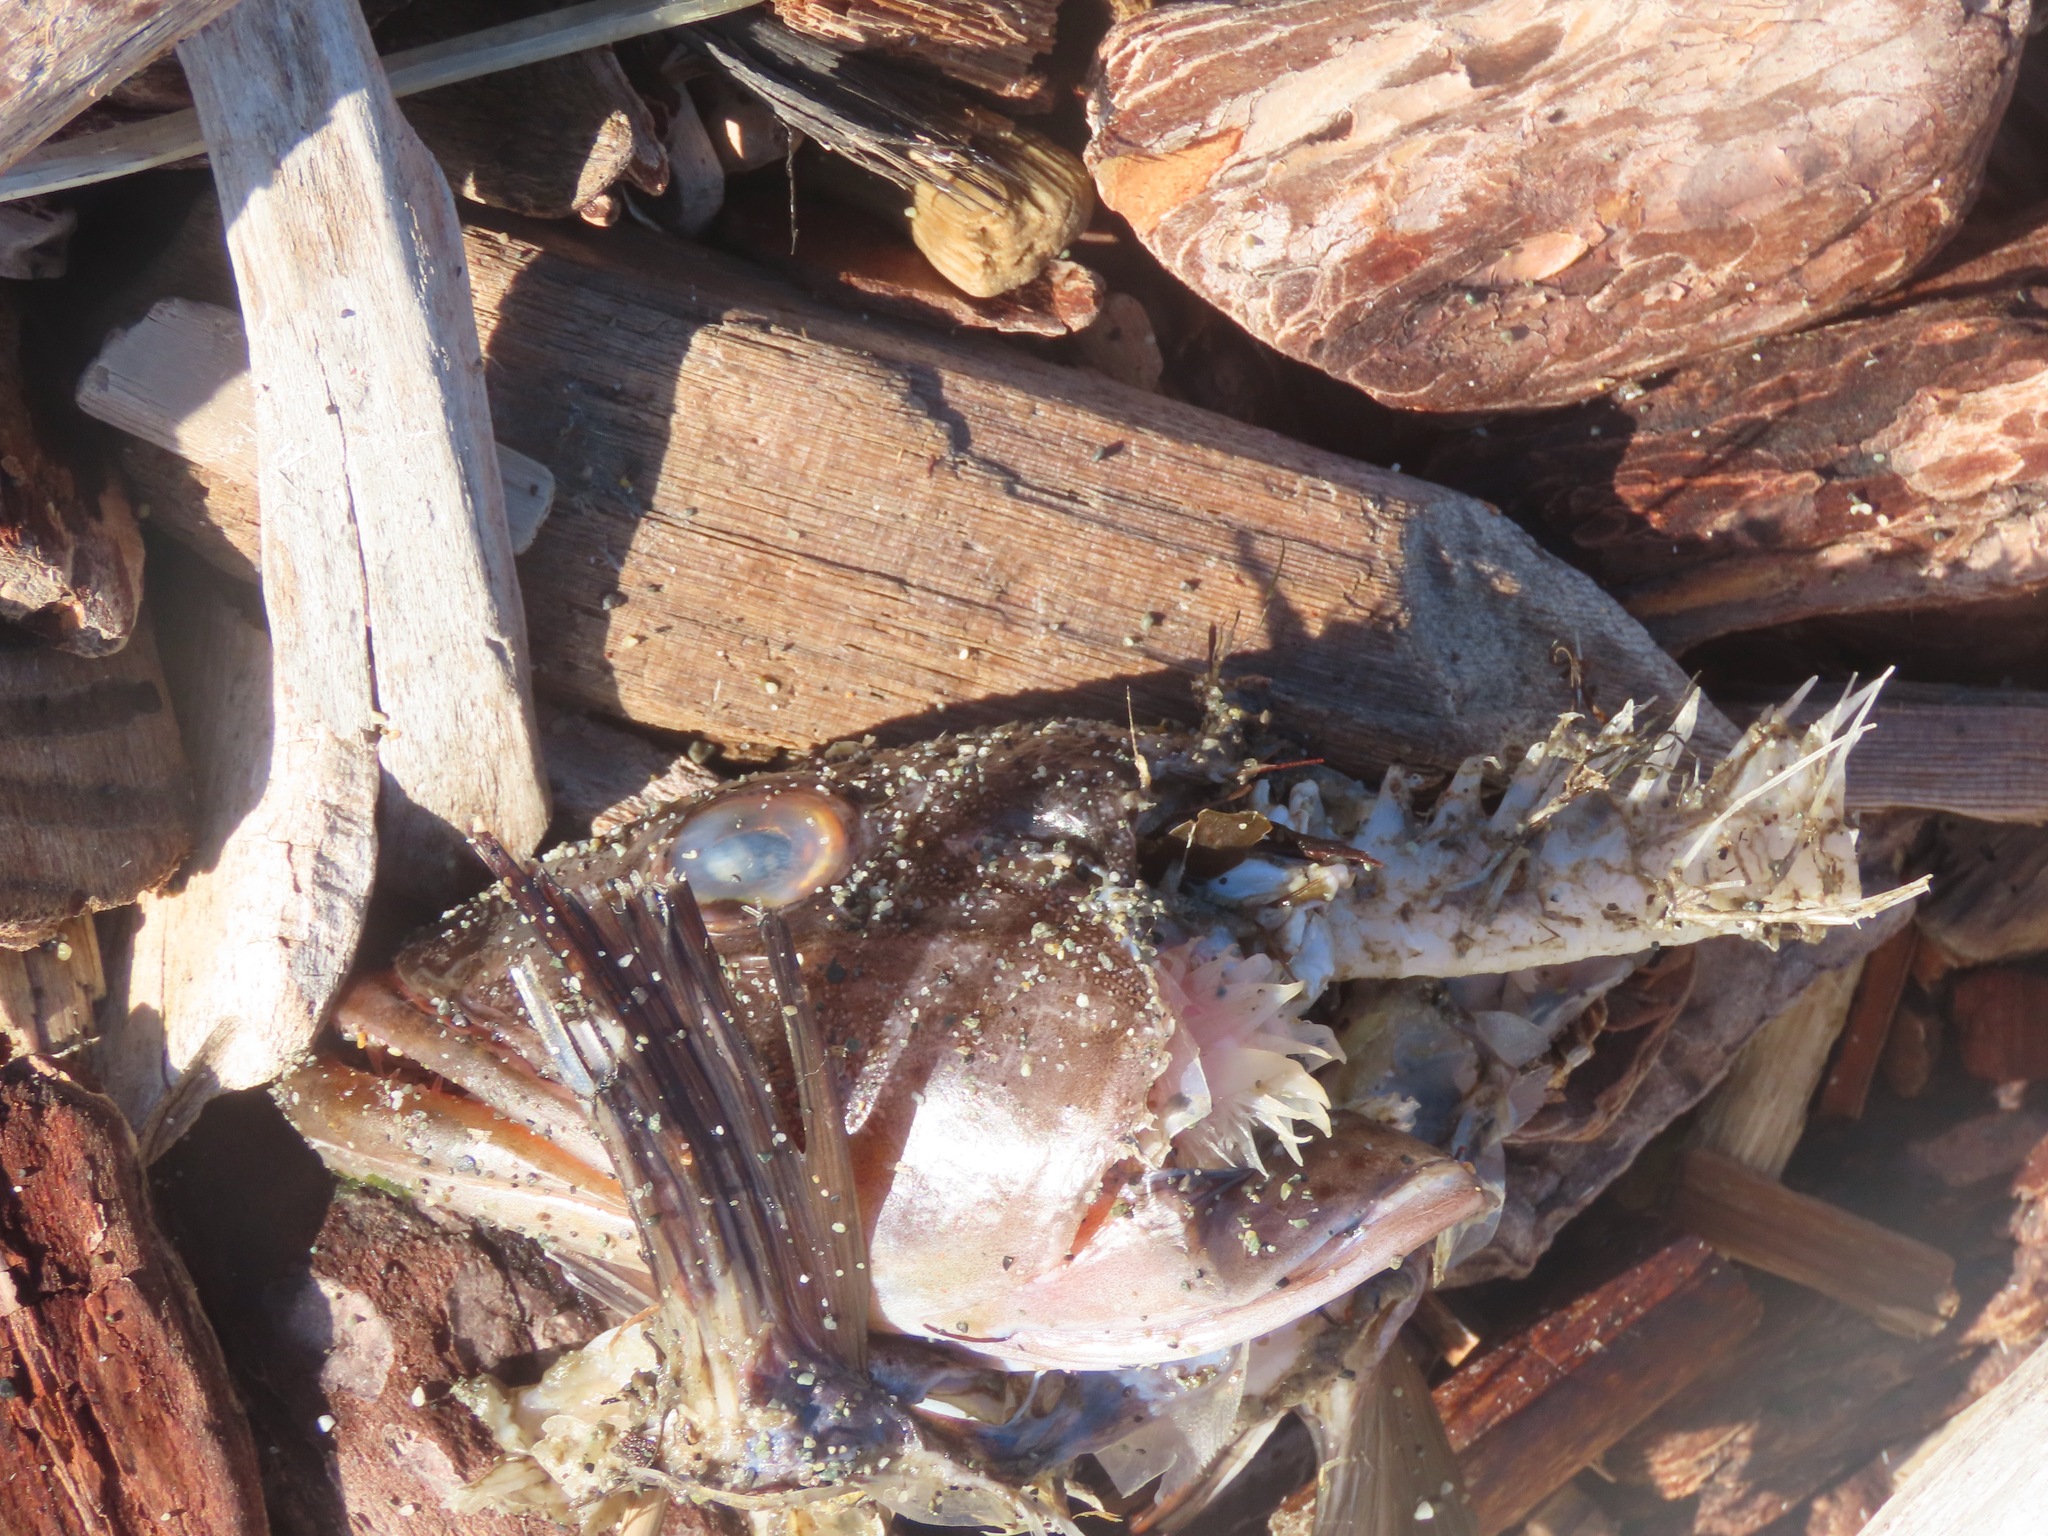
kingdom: Animalia
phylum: Chordata
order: Scorpaeniformes
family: Hexagrammidae
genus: Ophiodon
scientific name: Ophiodon elongatus
